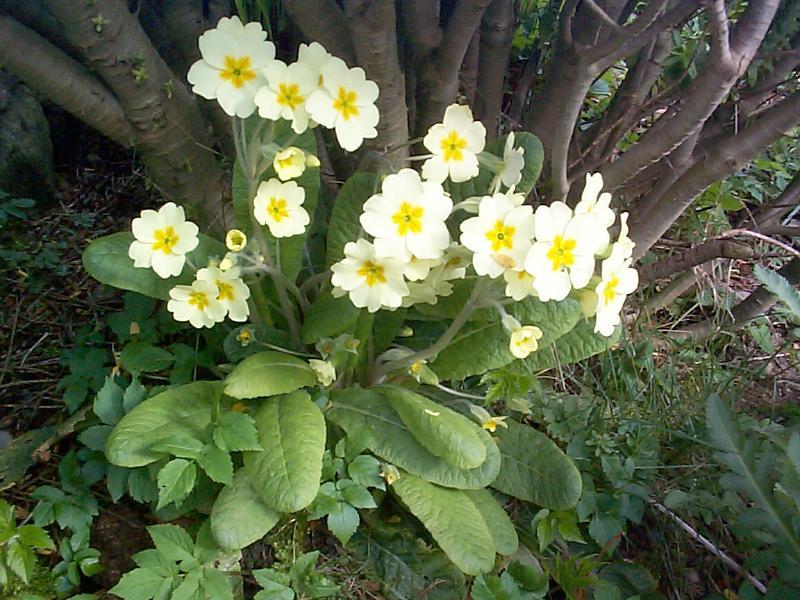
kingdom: Plantae
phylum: Tracheophyta
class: Magnoliopsida
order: Ericales
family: Primulaceae
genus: Primula
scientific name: Primula vulgaris
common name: Primrose
